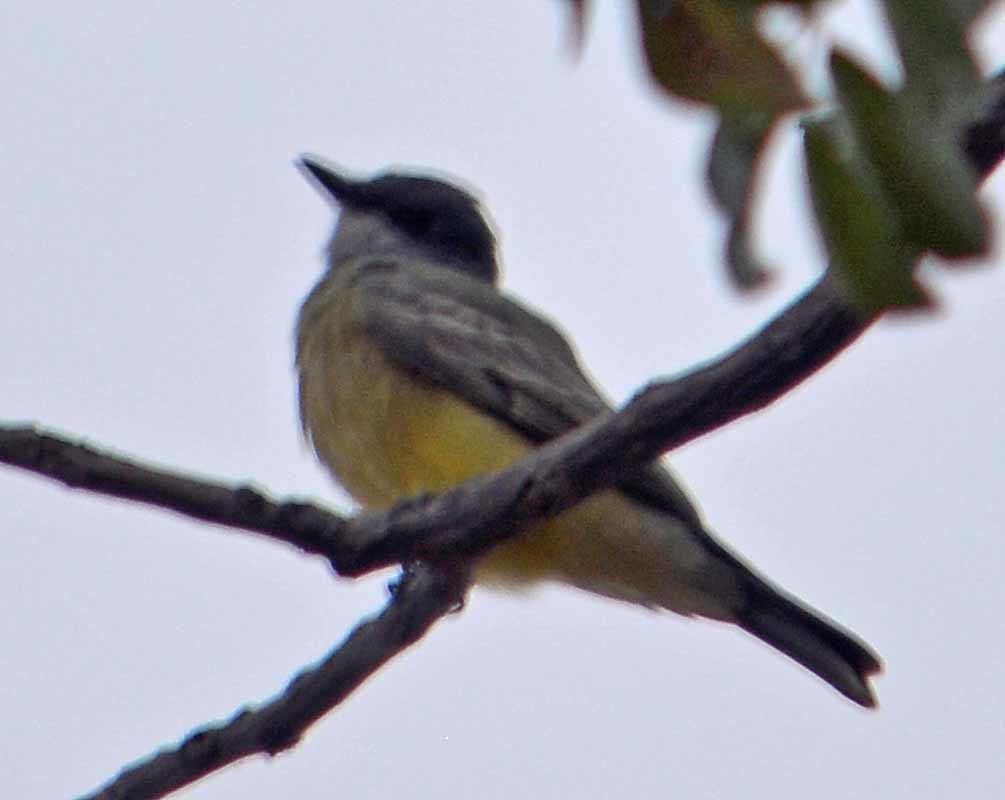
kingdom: Animalia
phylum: Chordata
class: Aves
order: Passeriformes
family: Tyrannidae
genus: Tyrannus
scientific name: Tyrannus vociferans
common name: Cassin's kingbird
